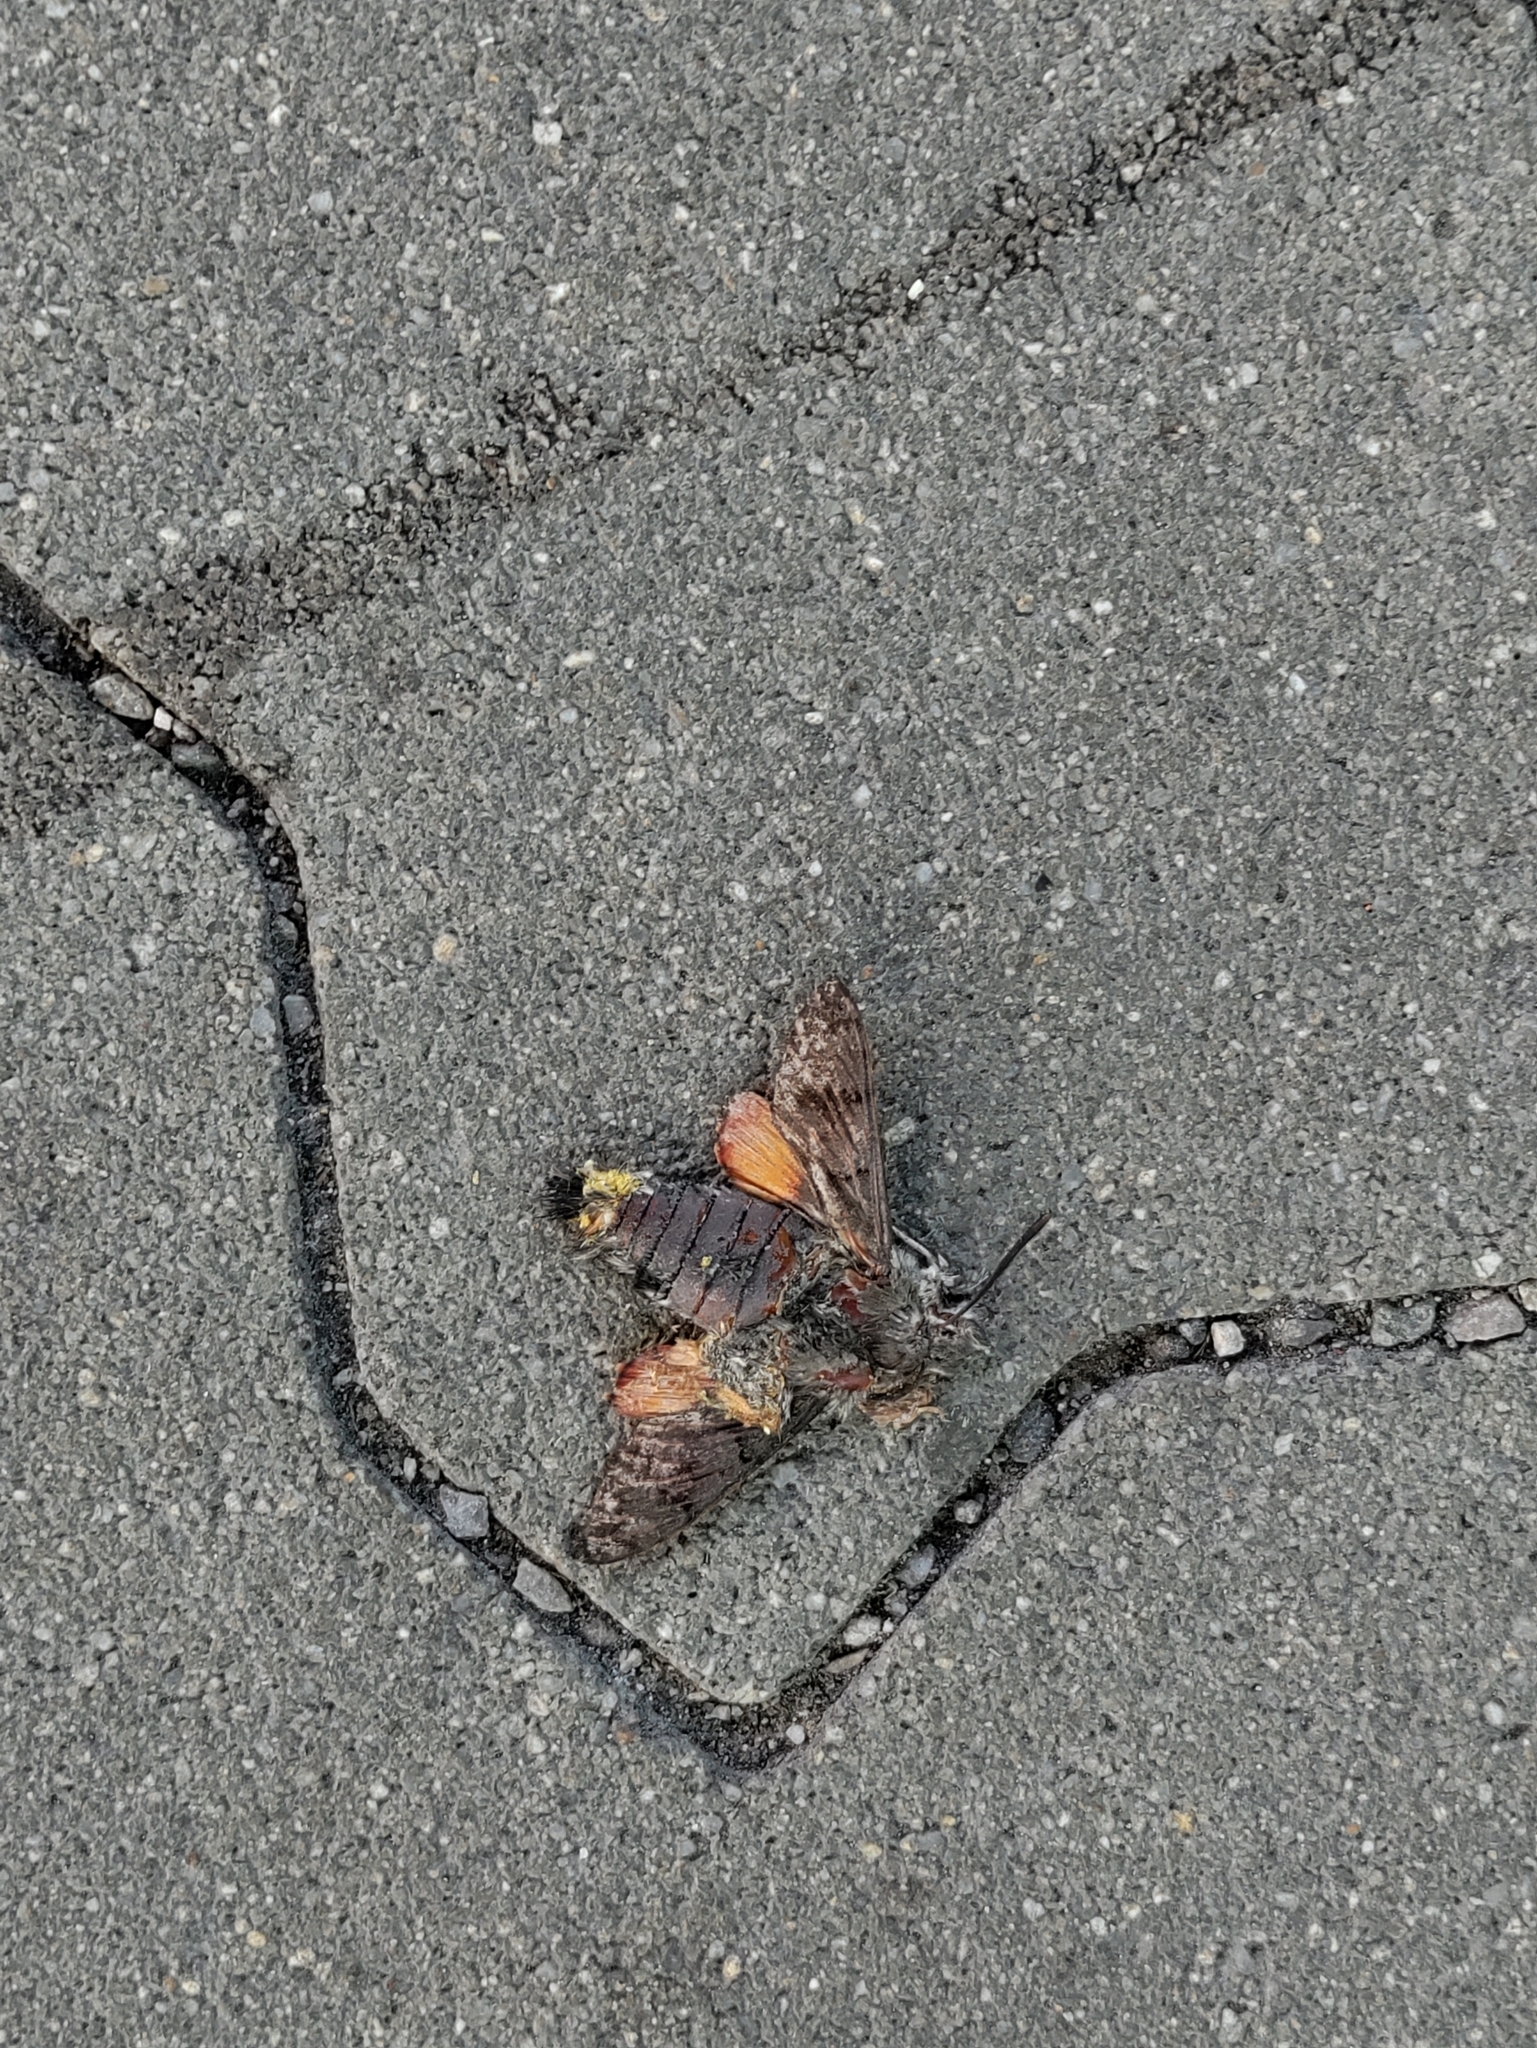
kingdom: Animalia
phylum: Arthropoda
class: Insecta
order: Lepidoptera
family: Sphingidae
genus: Macroglossum
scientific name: Macroglossum stellatarum
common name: Humming-bird hawk-moth
